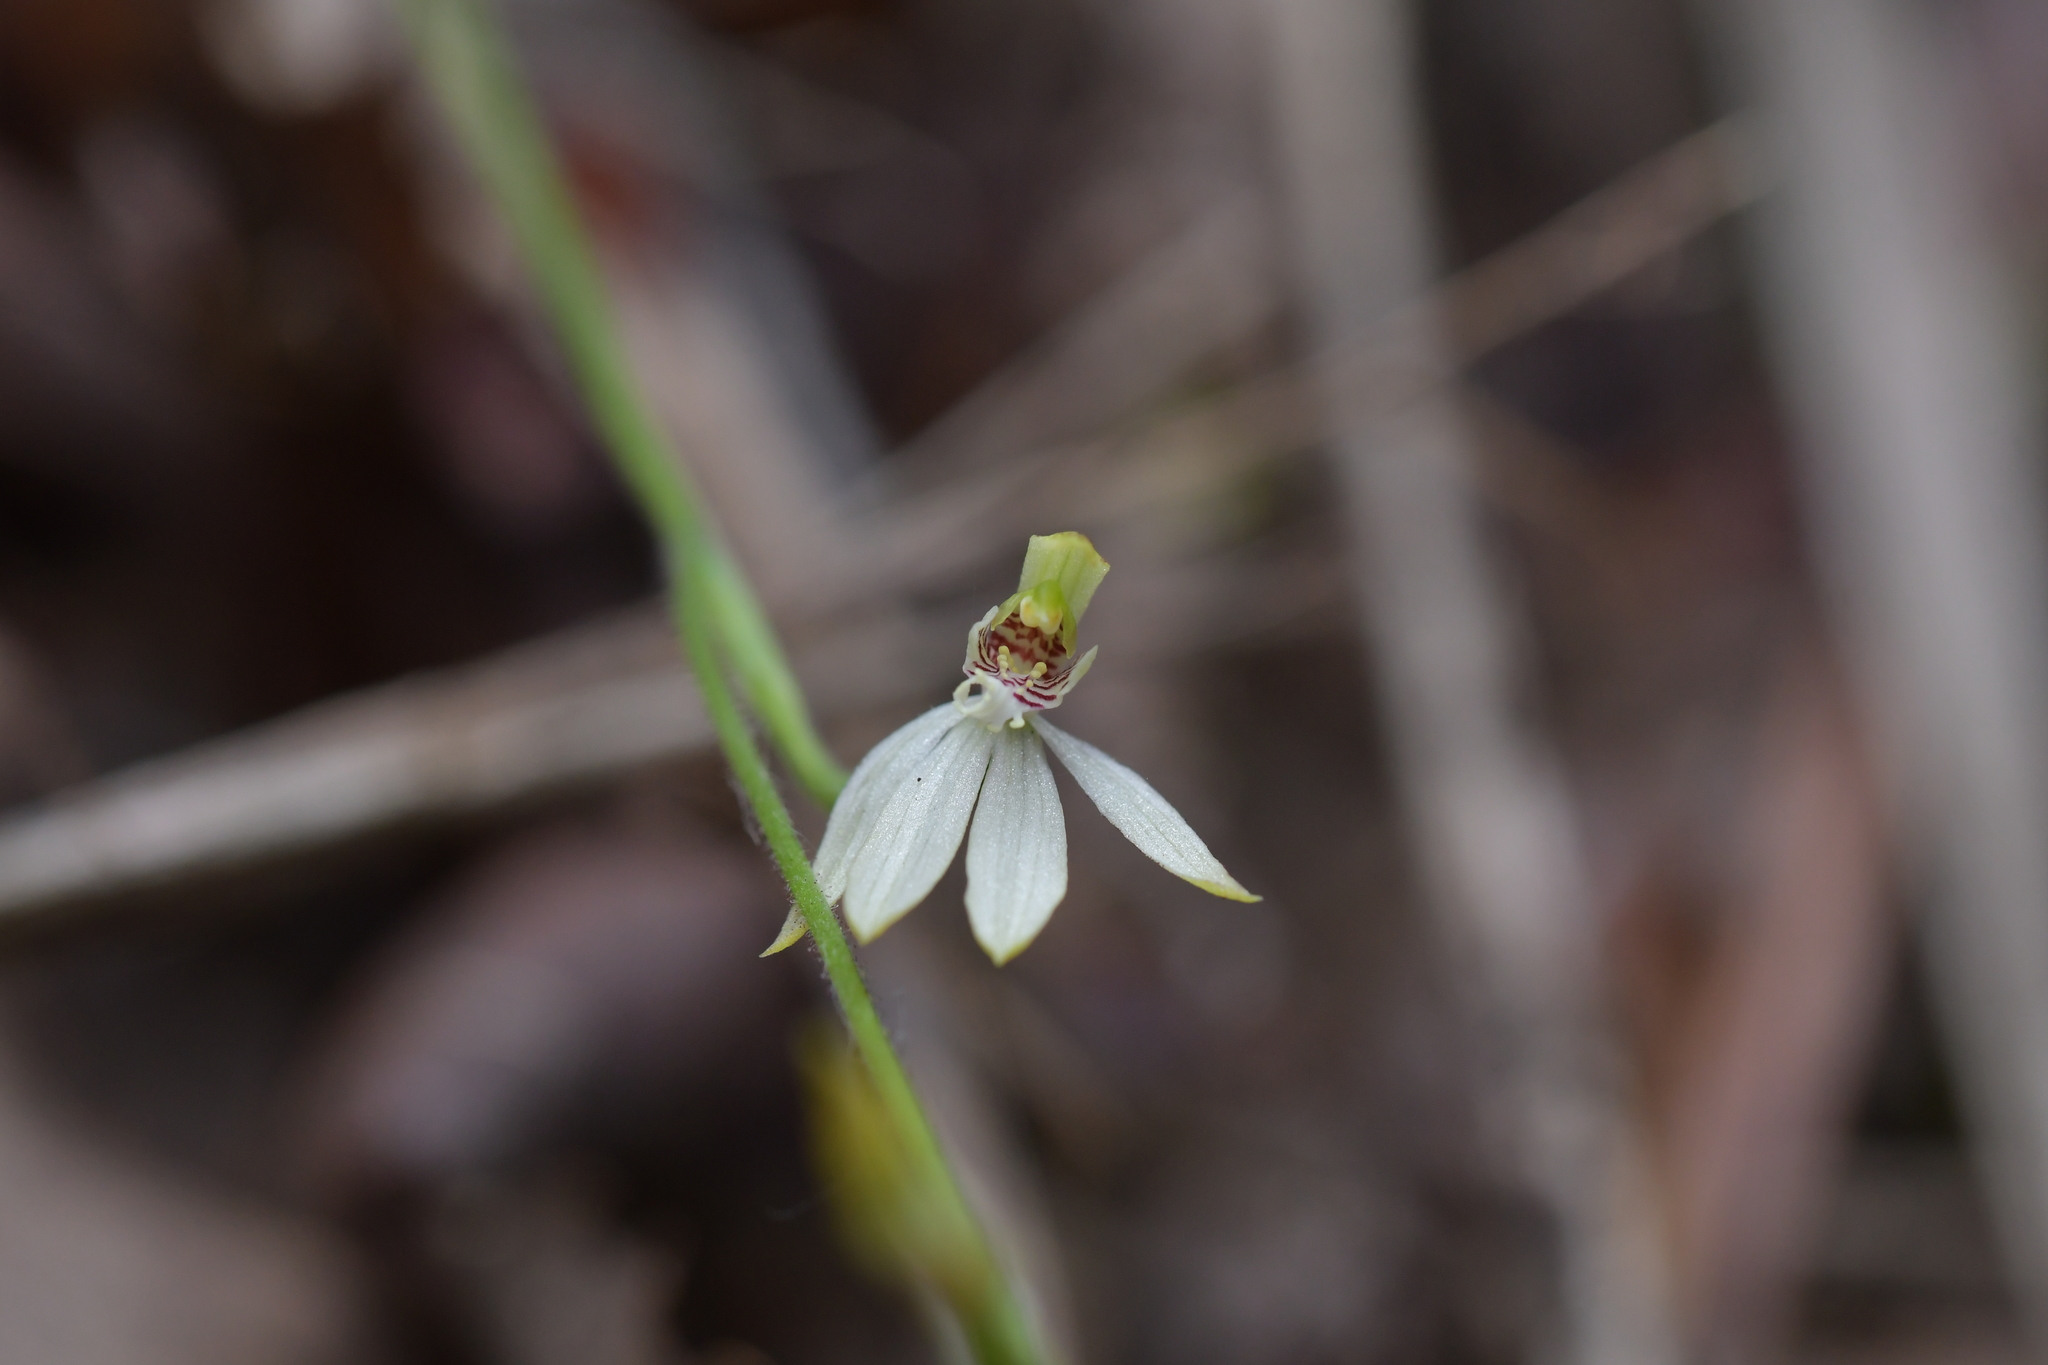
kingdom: Plantae
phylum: Tracheophyta
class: Liliopsida
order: Asparagales
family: Orchidaceae
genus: Caladenia
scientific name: Caladenia chlorostyla
